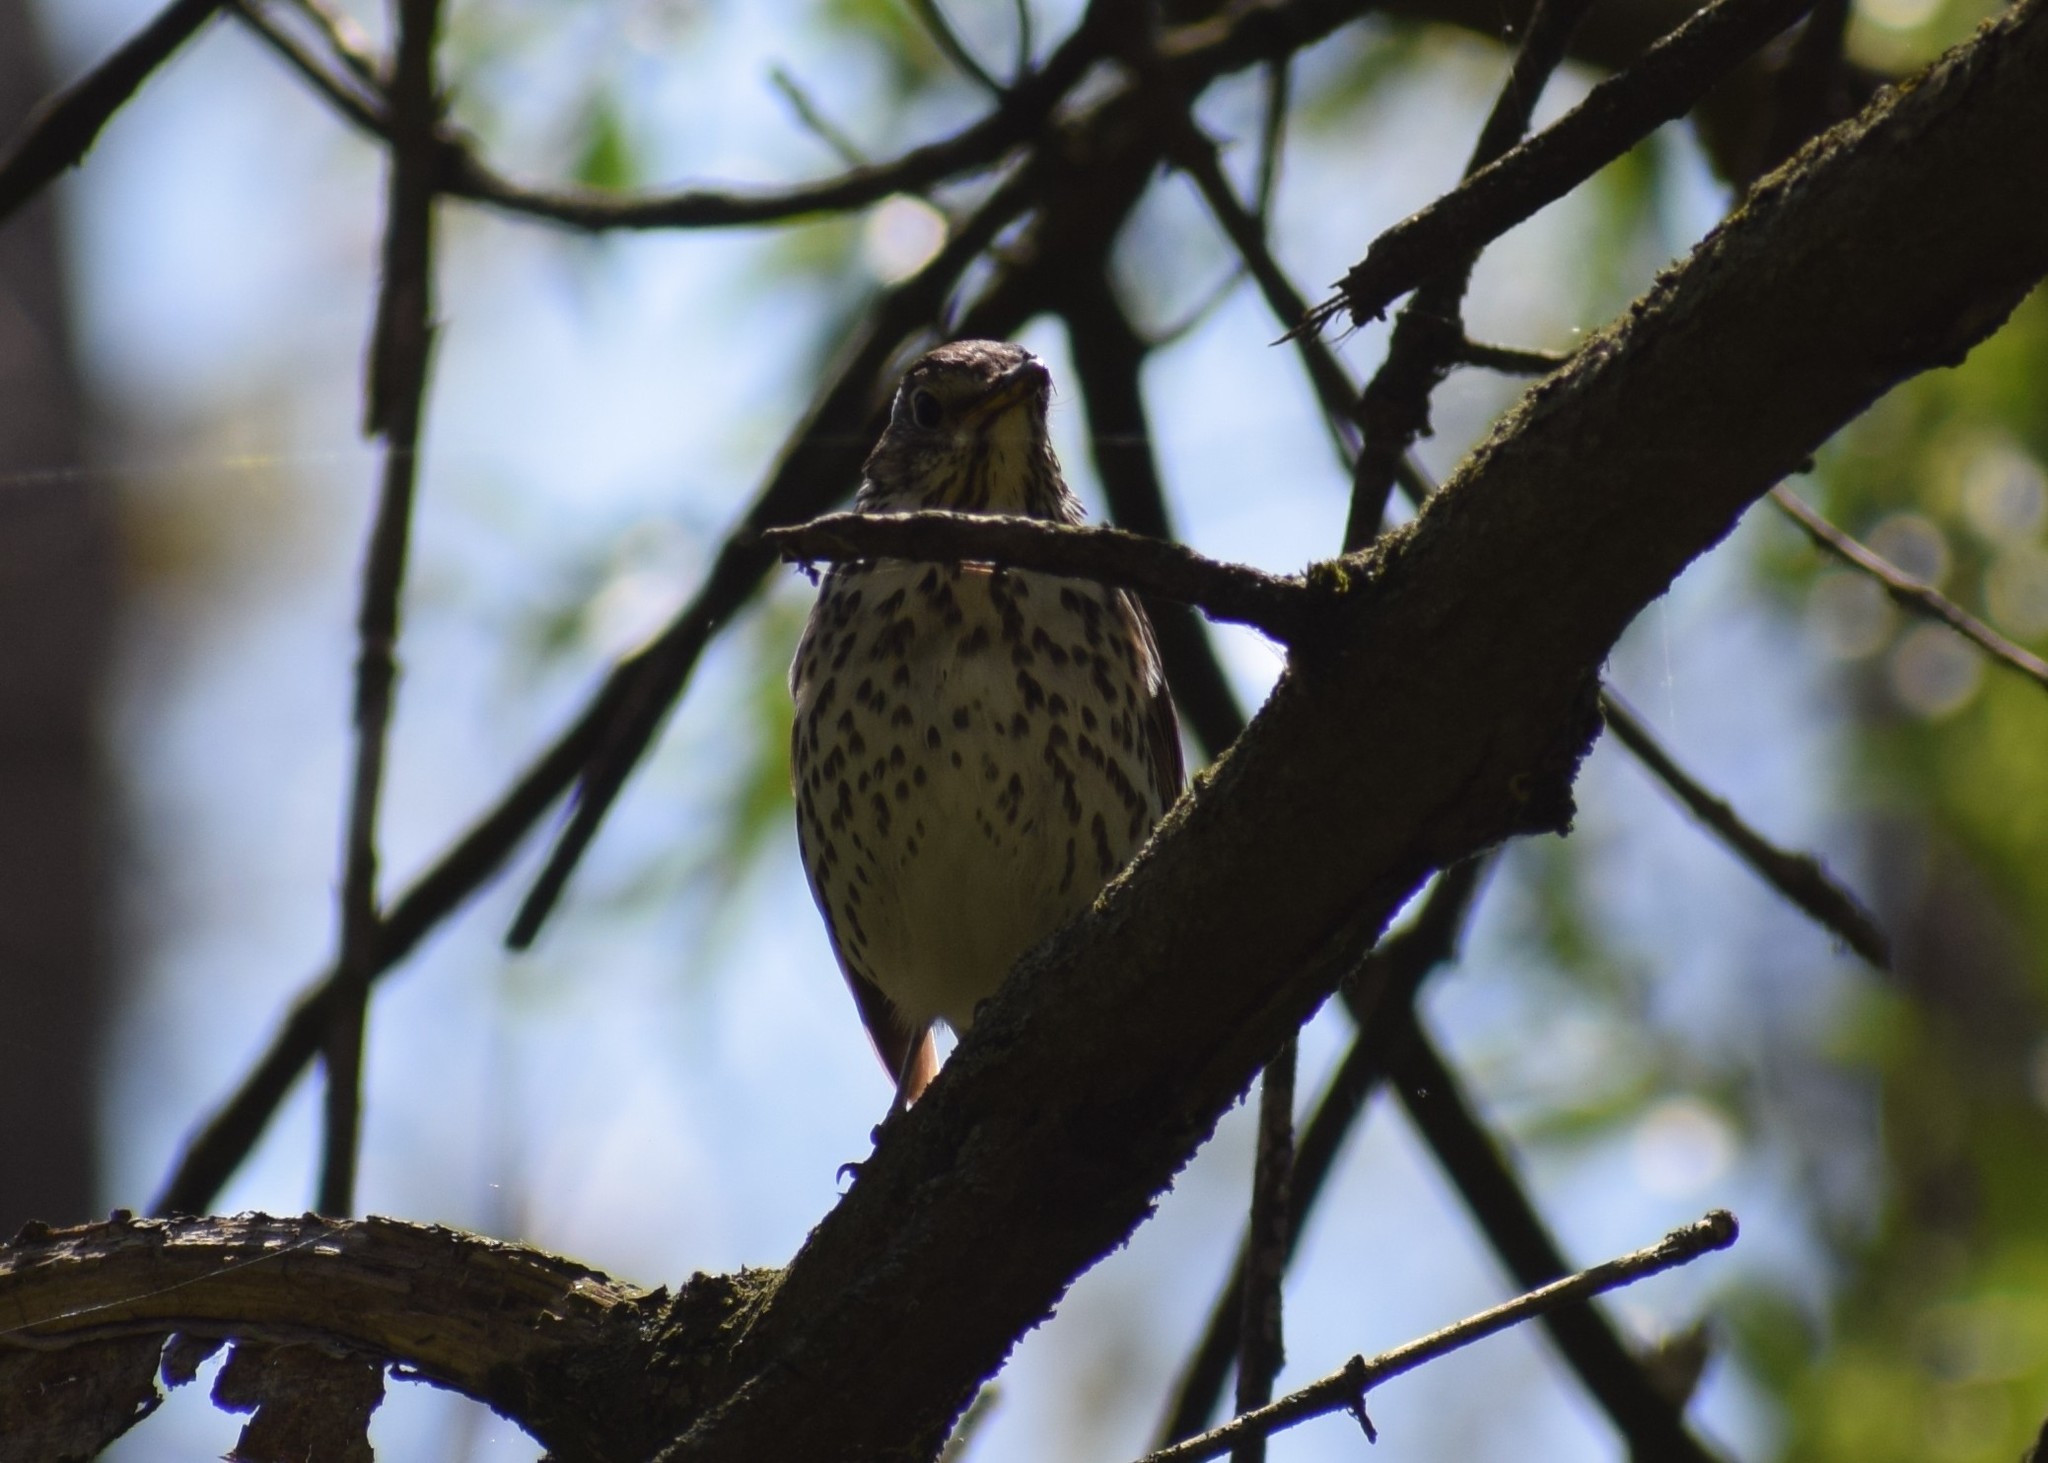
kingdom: Animalia
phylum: Chordata
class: Aves
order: Passeriformes
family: Turdidae
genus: Turdus
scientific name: Turdus philomelos
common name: Song thrush
